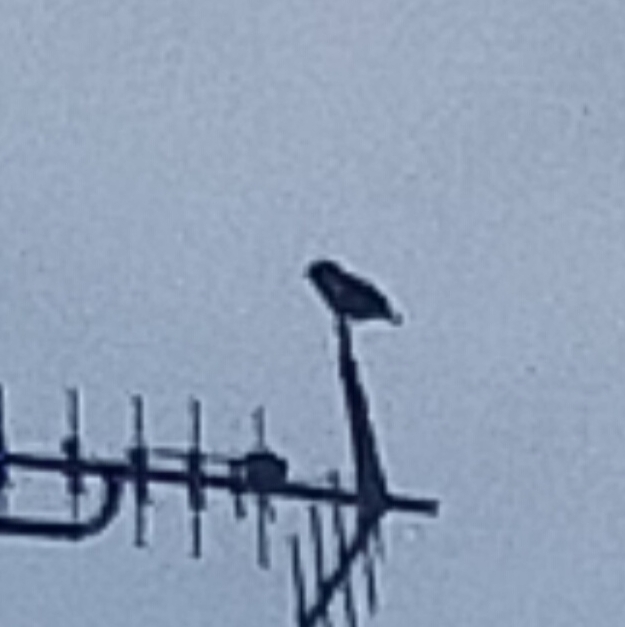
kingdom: Animalia
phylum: Chordata
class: Aves
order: Passeriformes
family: Sturnidae
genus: Sturnus
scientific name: Sturnus vulgaris
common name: Common starling
